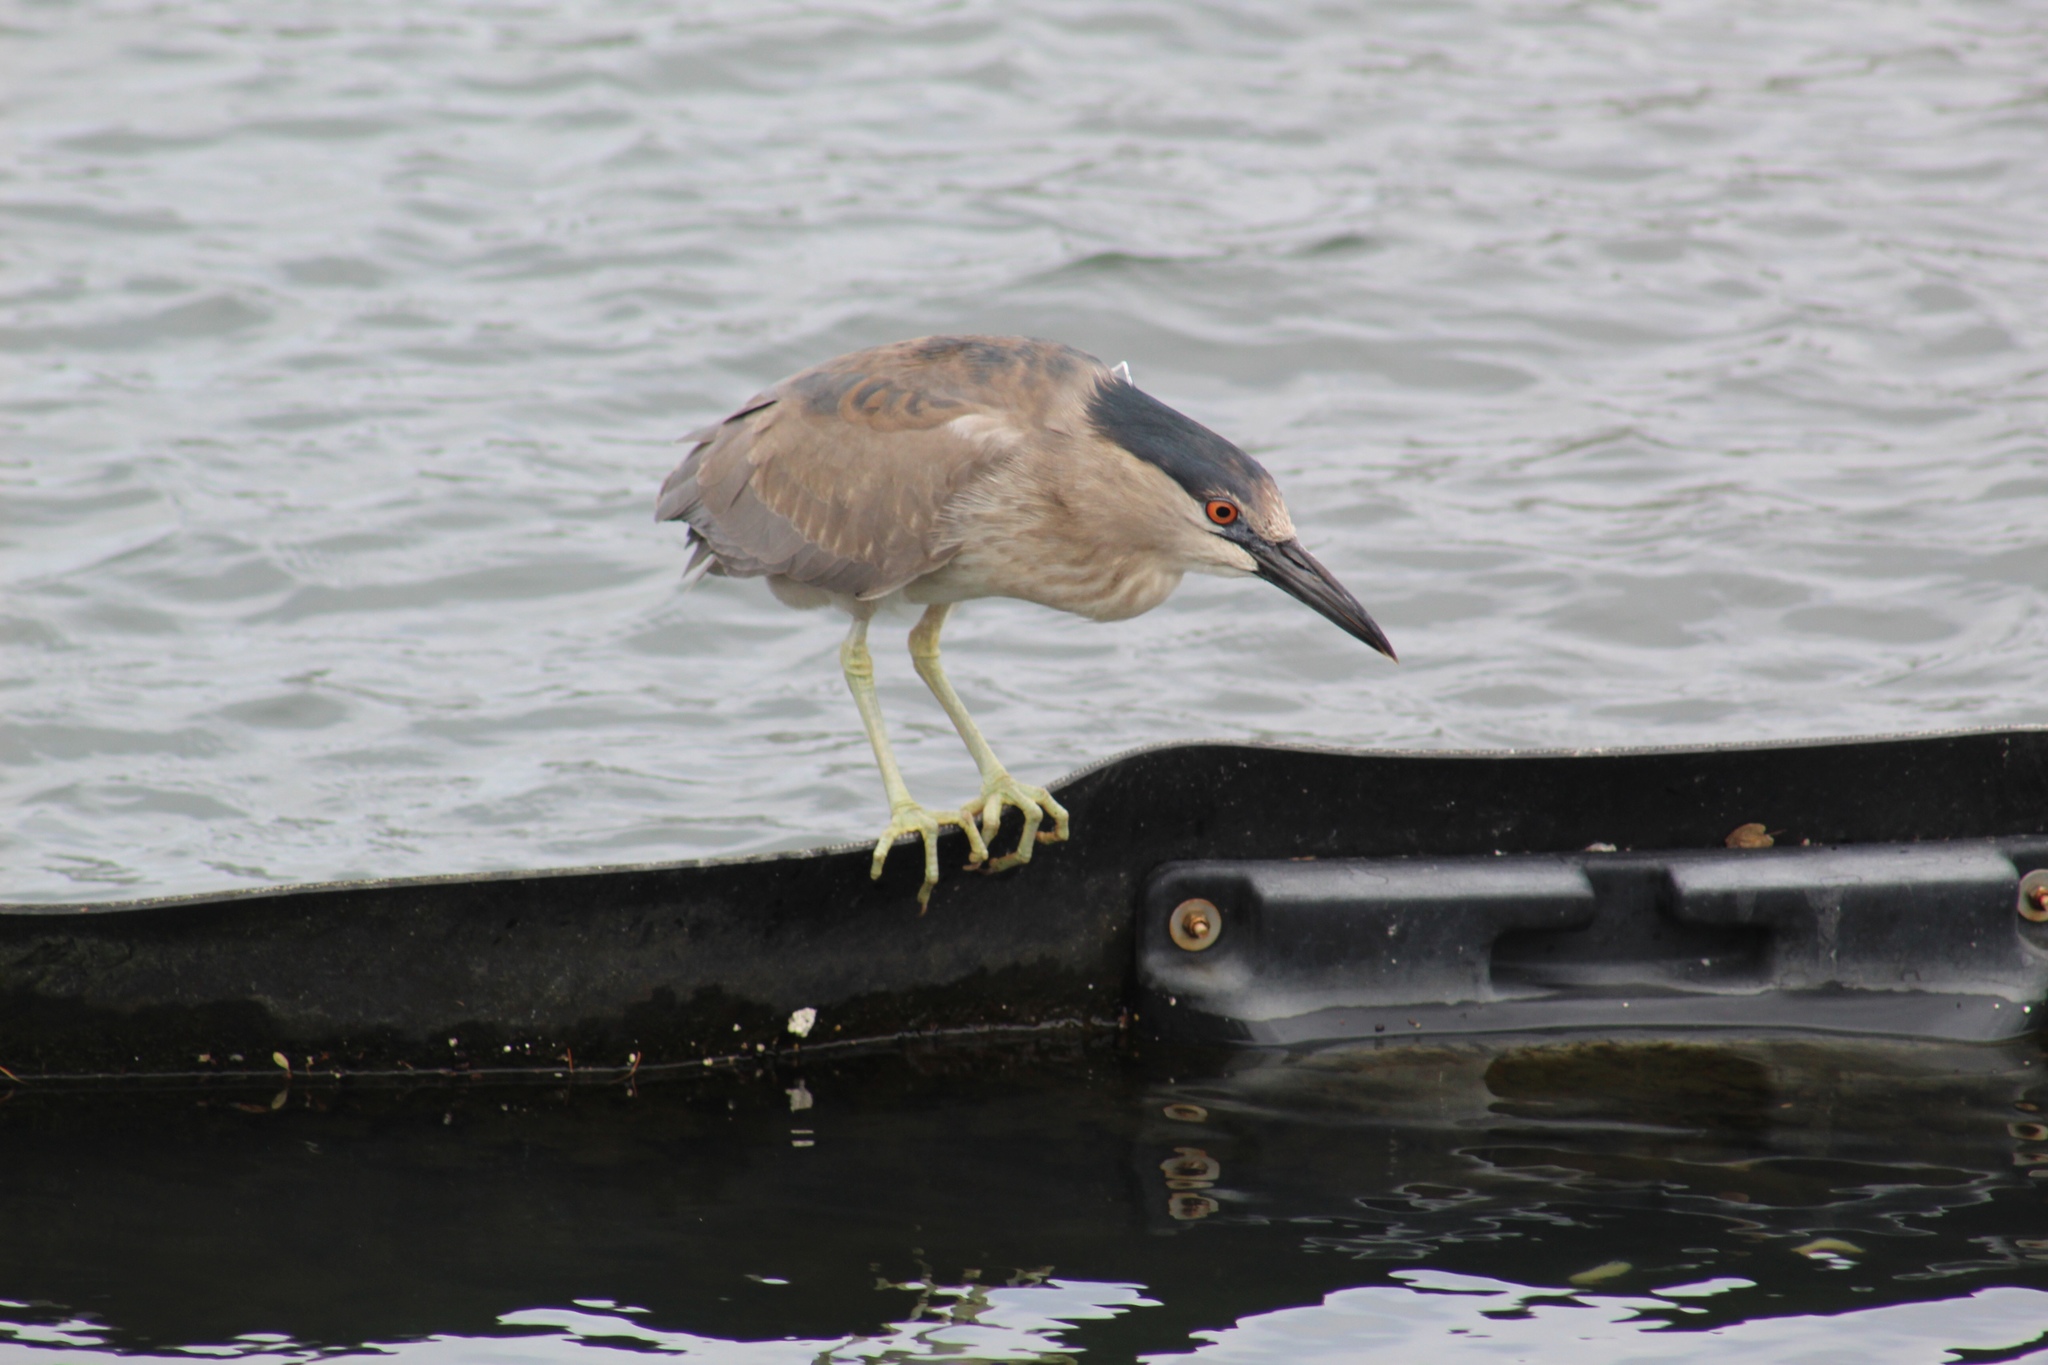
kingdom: Animalia
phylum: Chordata
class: Aves
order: Pelecaniformes
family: Ardeidae
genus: Nycticorax
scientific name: Nycticorax nycticorax
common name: Black-crowned night heron
